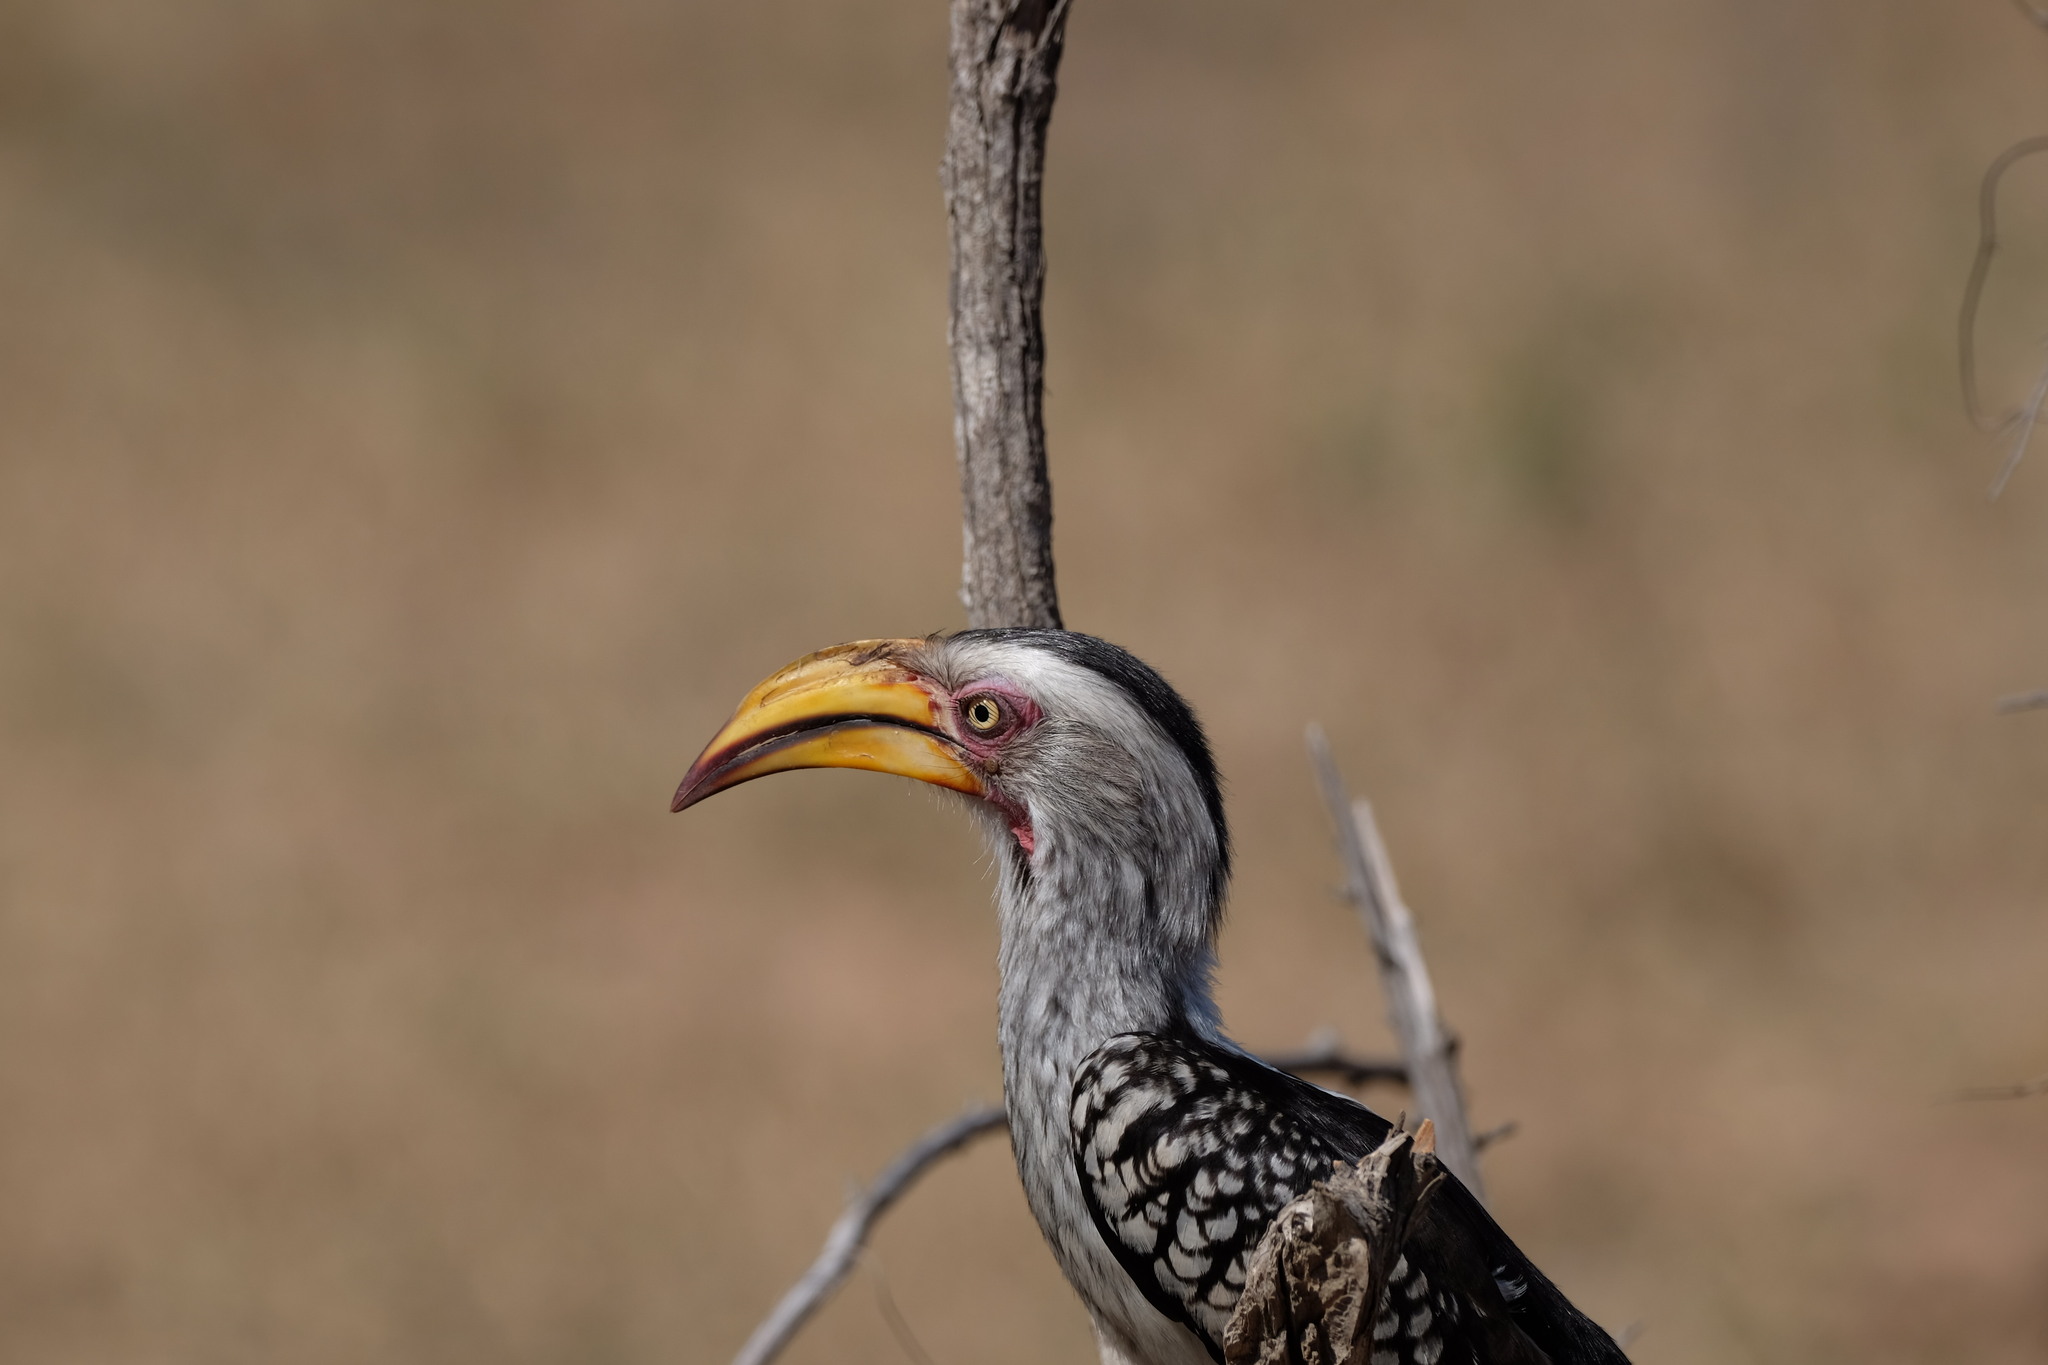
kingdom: Animalia
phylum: Chordata
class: Aves
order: Bucerotiformes
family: Bucerotidae
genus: Tockus
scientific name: Tockus leucomelas
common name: Southern yellow-billed hornbill
